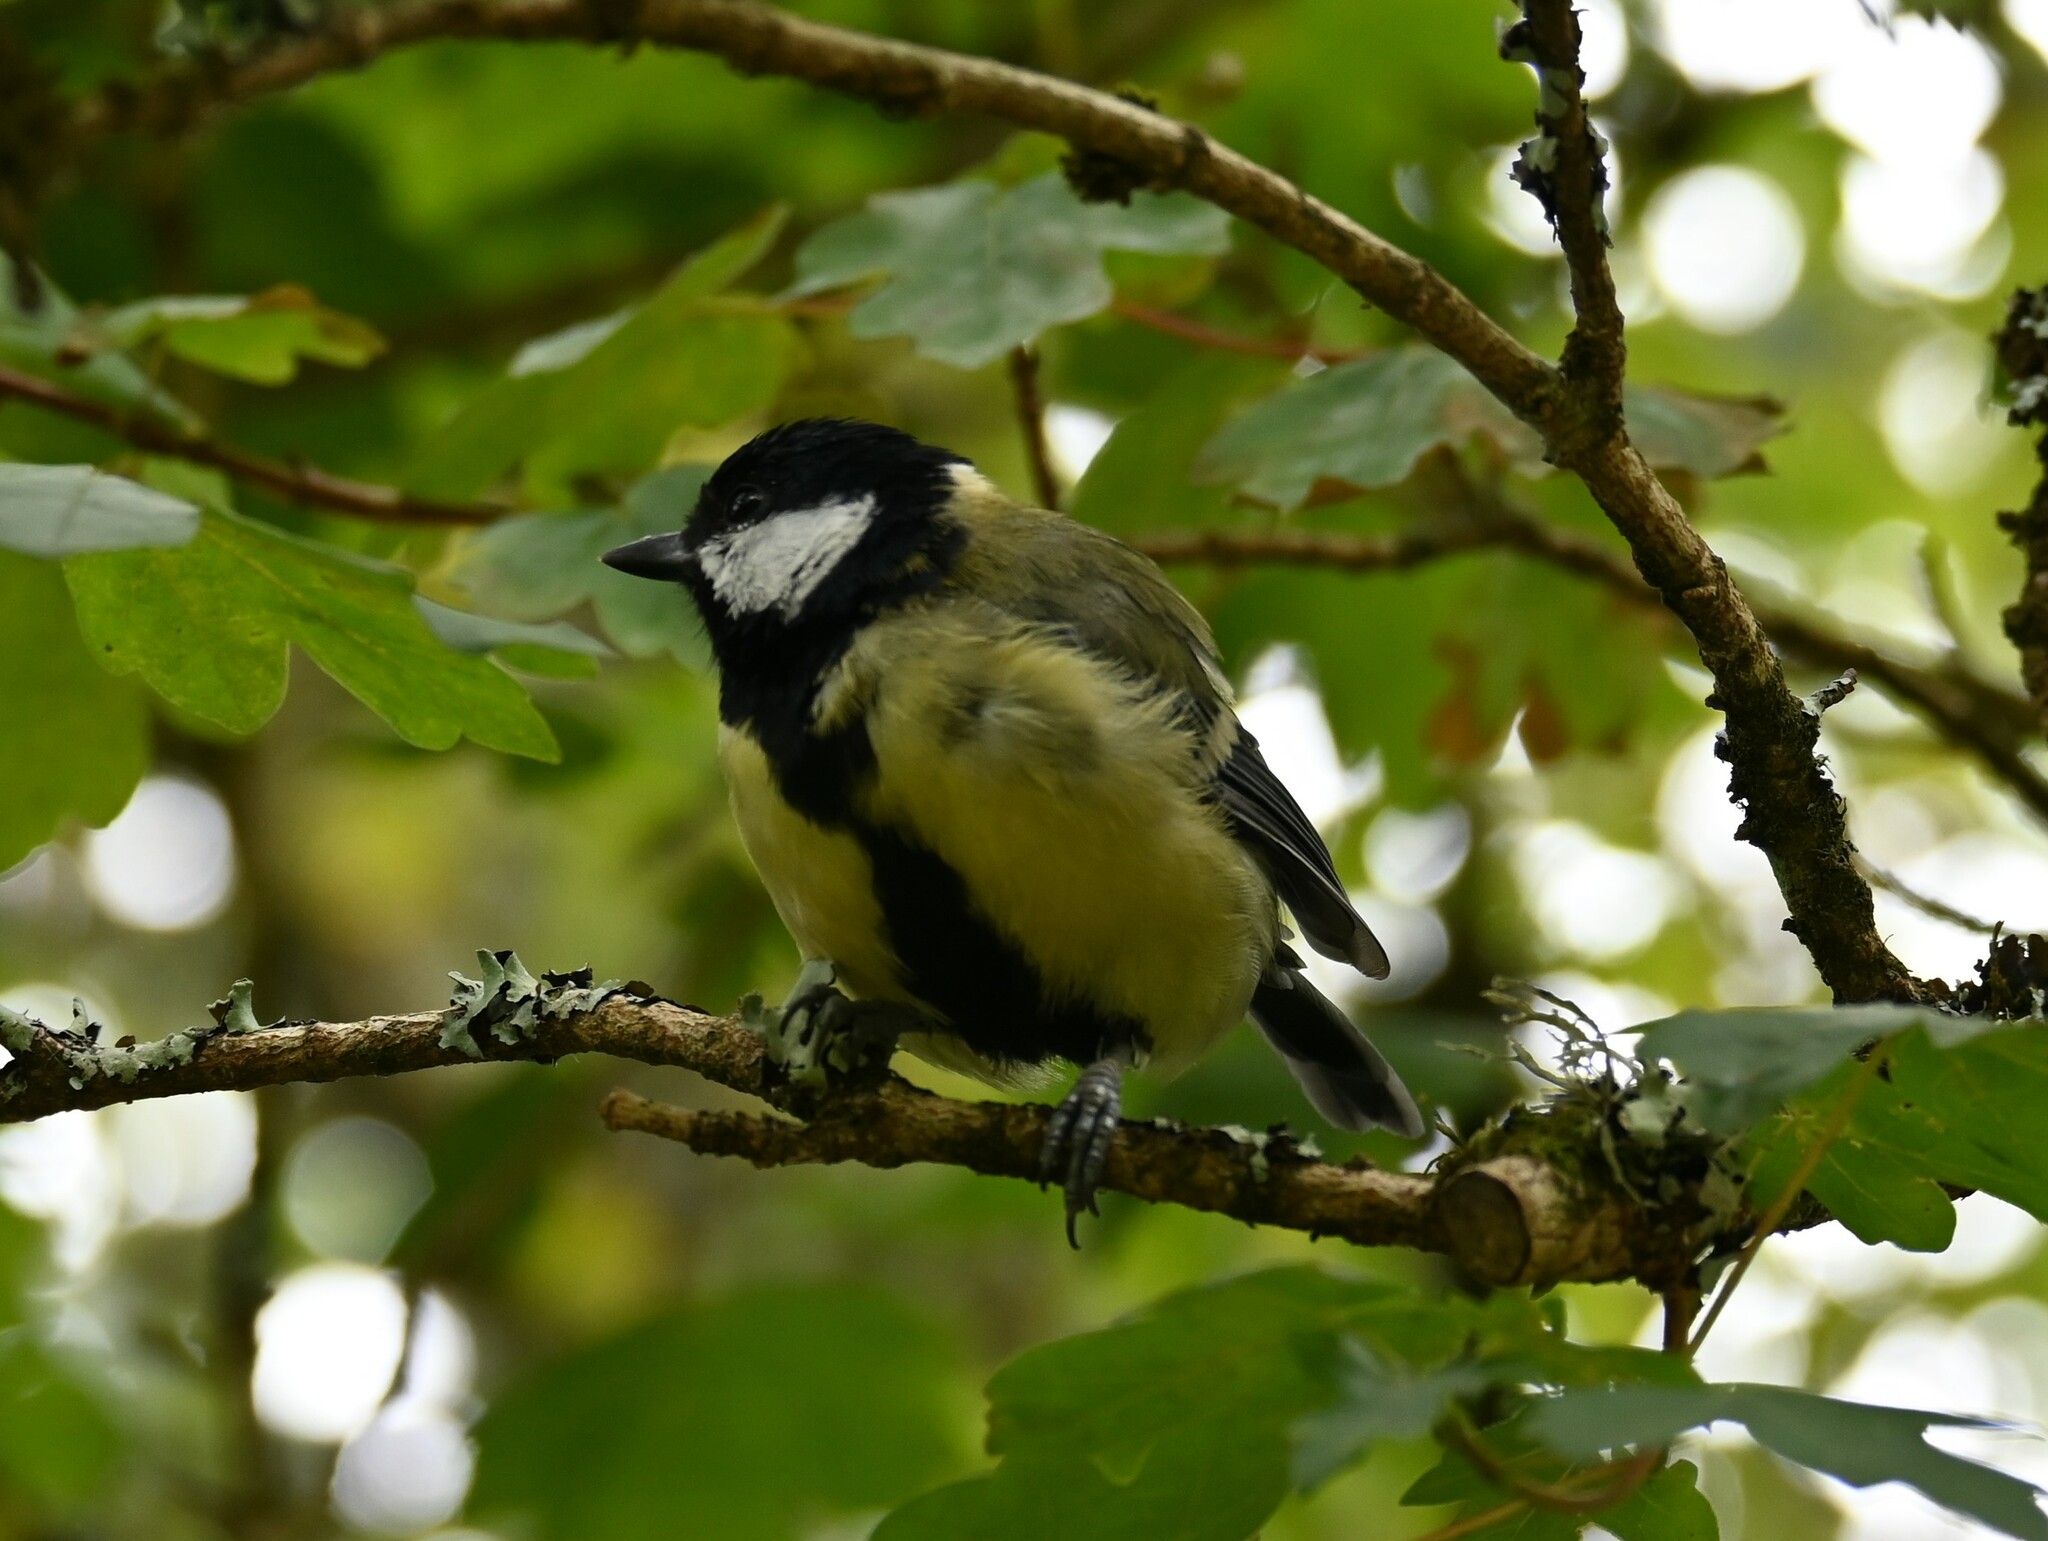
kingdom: Animalia
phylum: Chordata
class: Aves
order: Passeriformes
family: Paridae
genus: Parus
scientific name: Parus major
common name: Great tit
